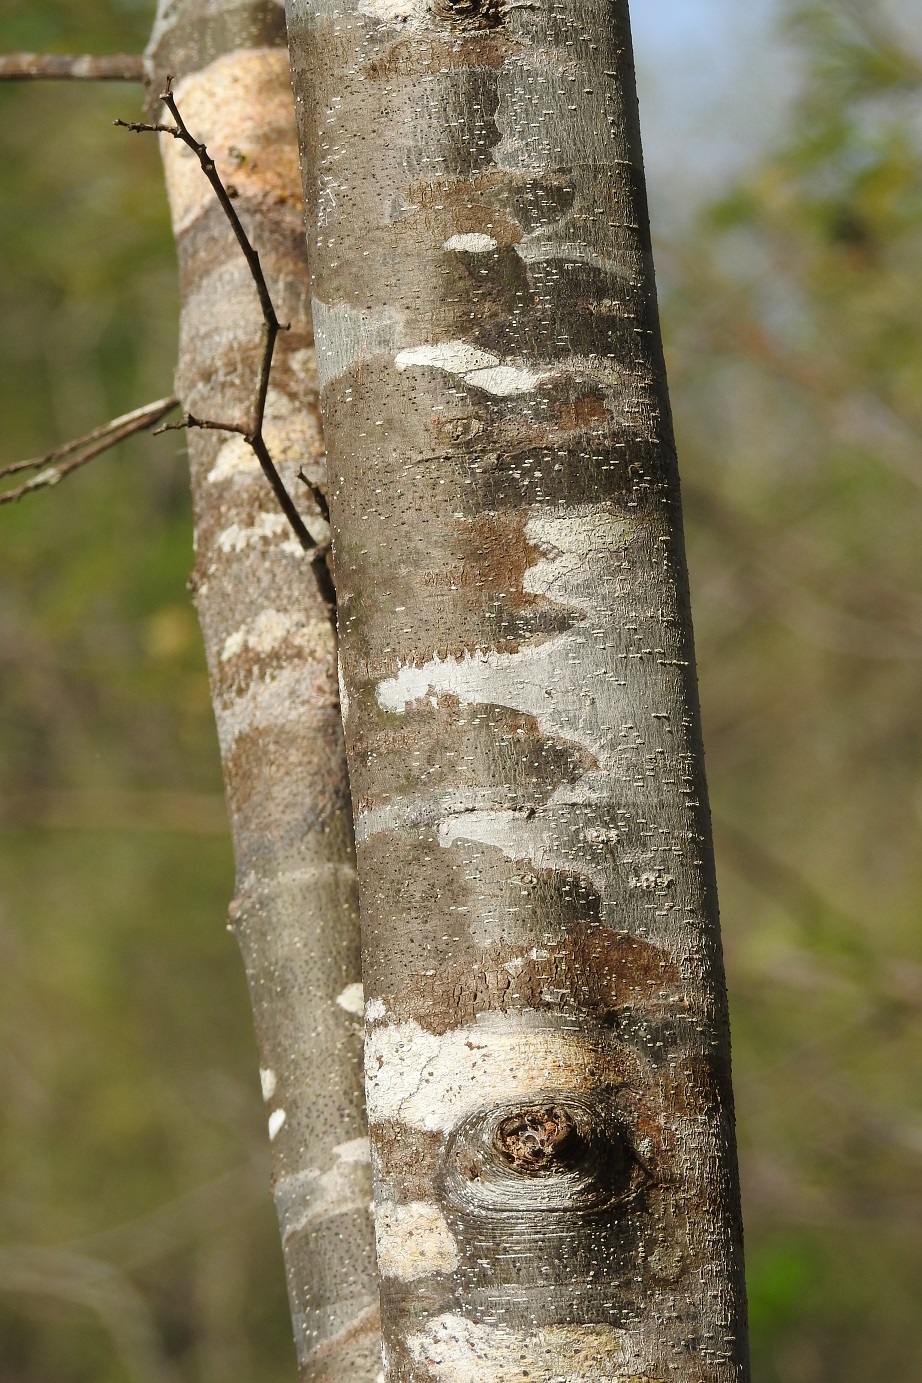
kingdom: Plantae
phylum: Tracheophyta
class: Magnoliopsida
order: Fabales
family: Fabaceae
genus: Leucaena
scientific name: Leucaena collinsii
